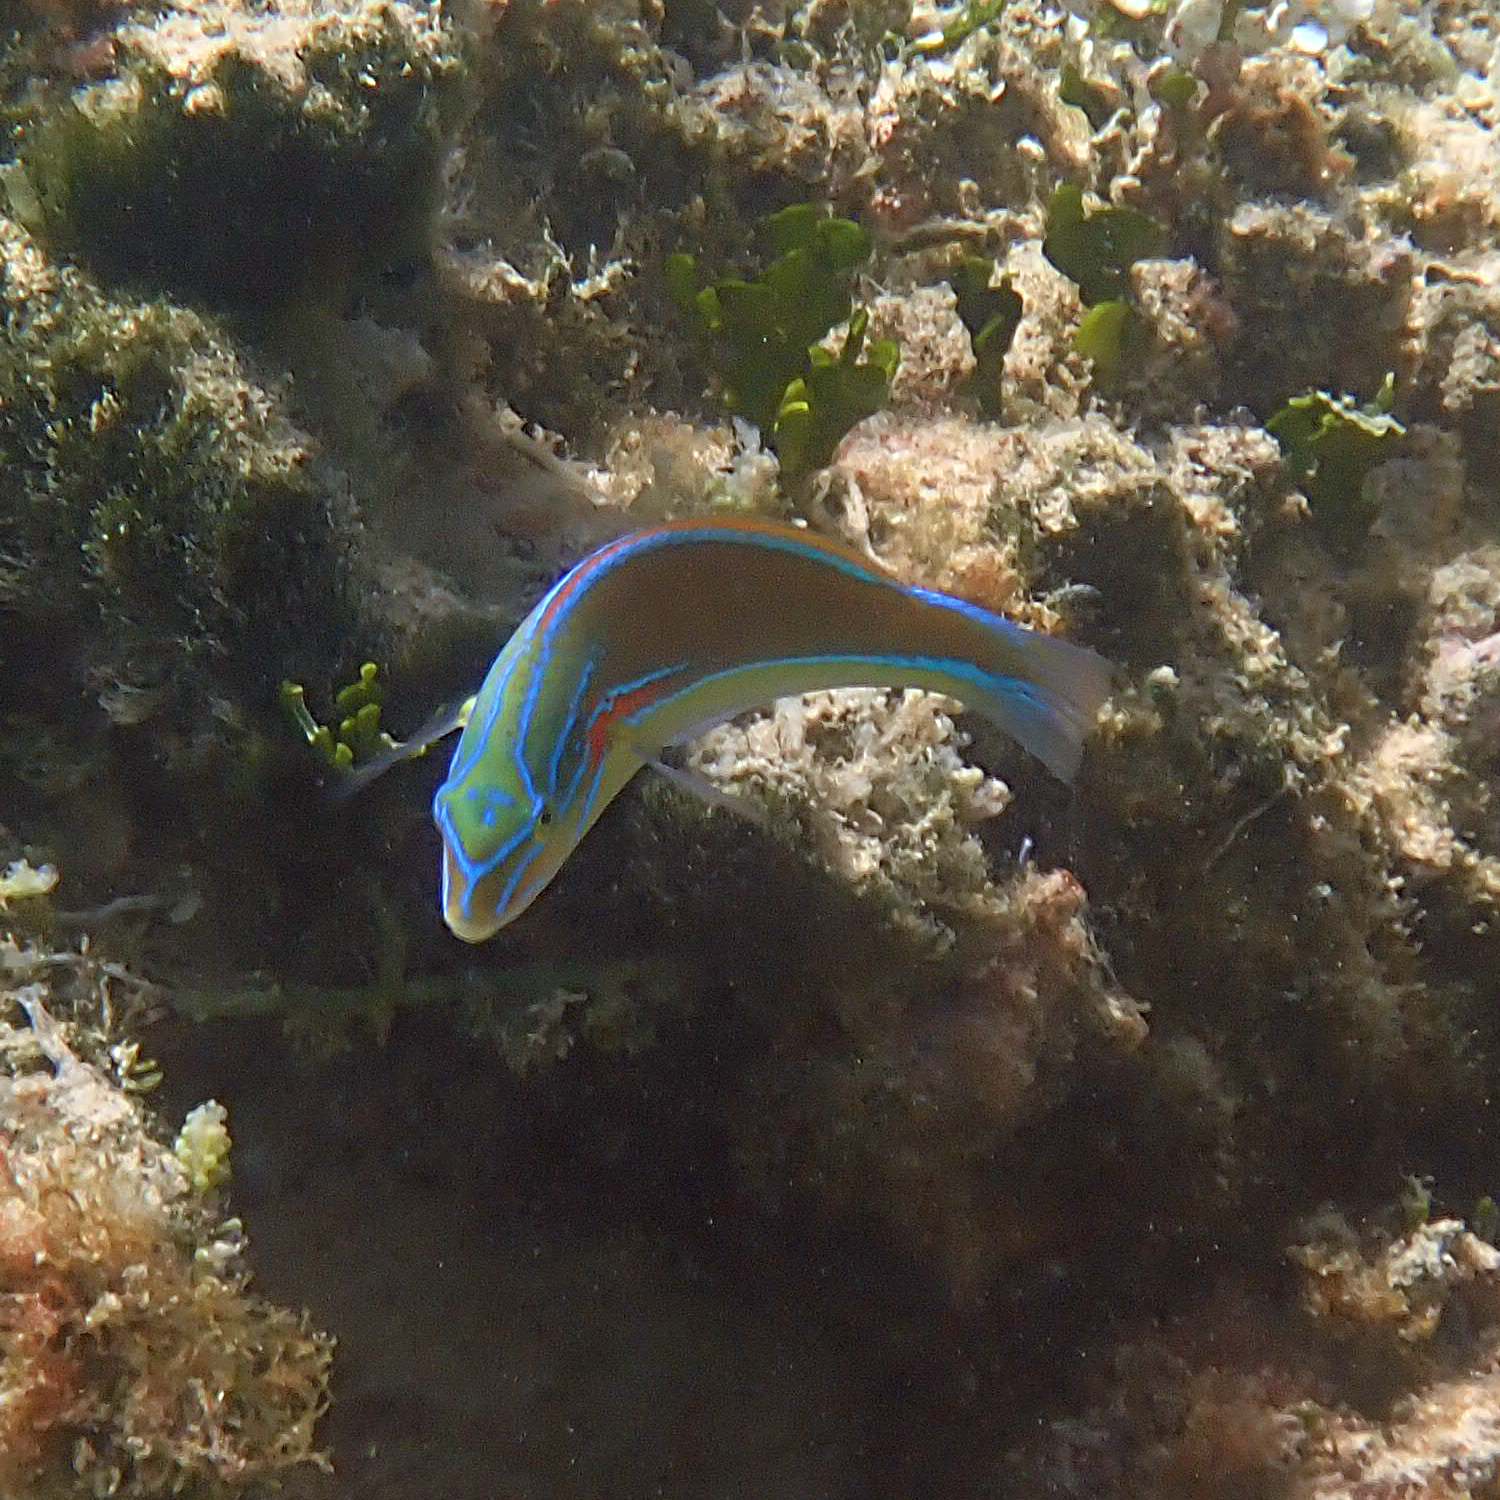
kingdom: Animalia
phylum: Chordata
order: Perciformes
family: Labridae
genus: Stethojulis
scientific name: Stethojulis bandanensis
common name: Red shoulder wrasse
